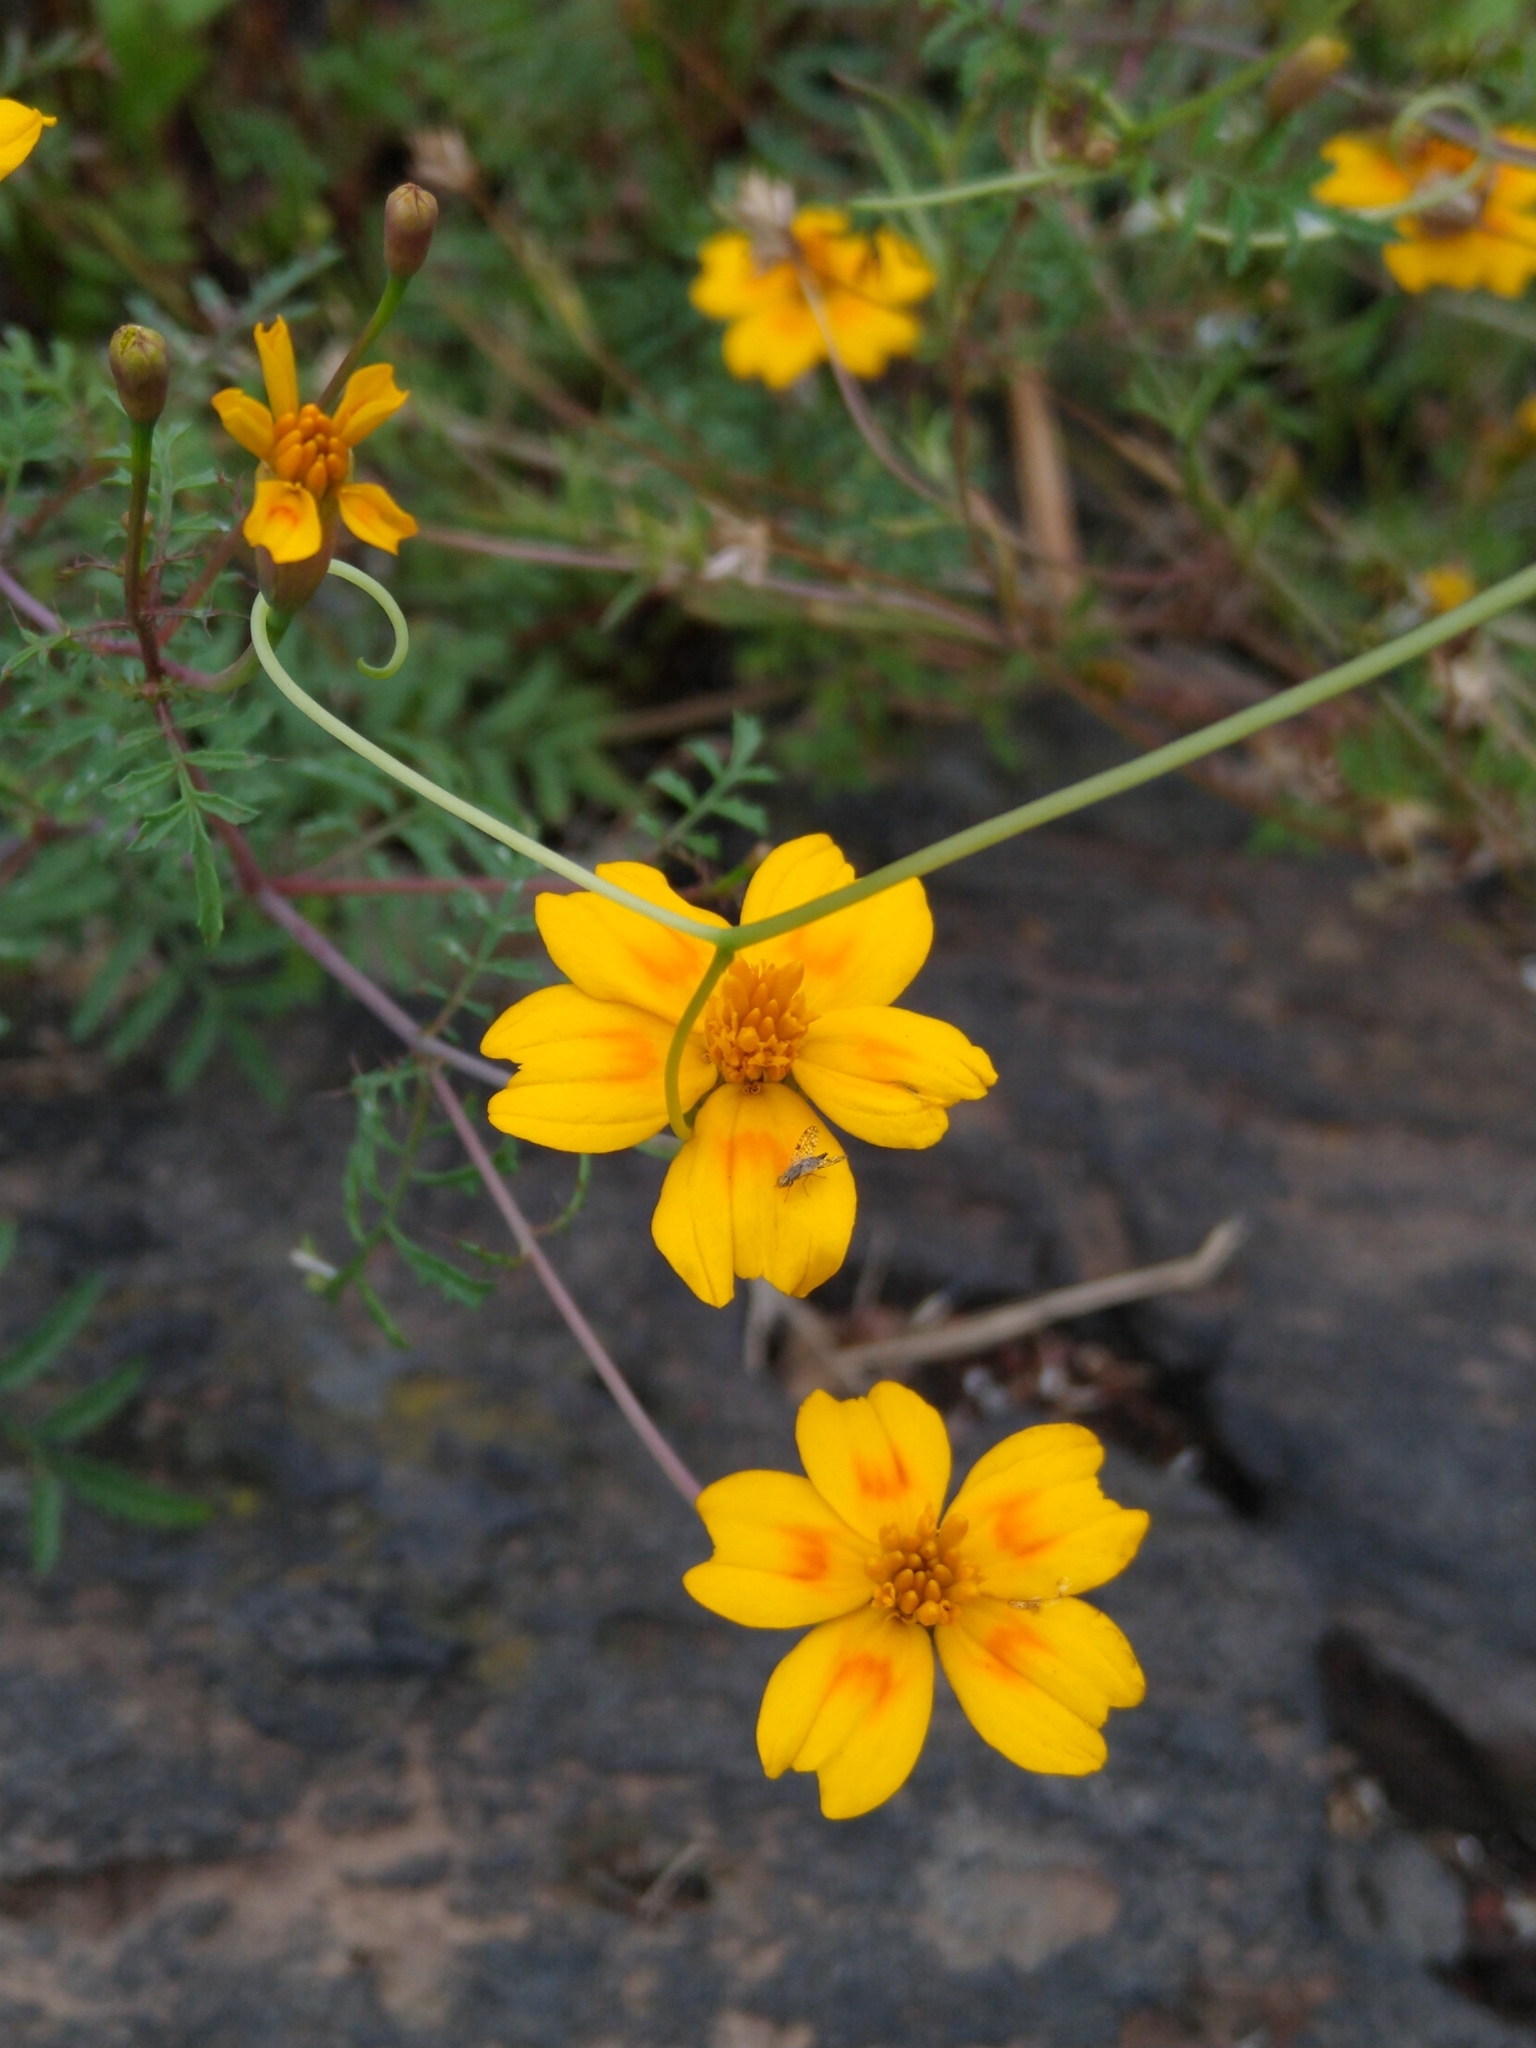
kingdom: Plantae
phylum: Tracheophyta
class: Magnoliopsida
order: Asterales
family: Asteraceae
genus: Tagetes
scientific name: Tagetes lunulata
